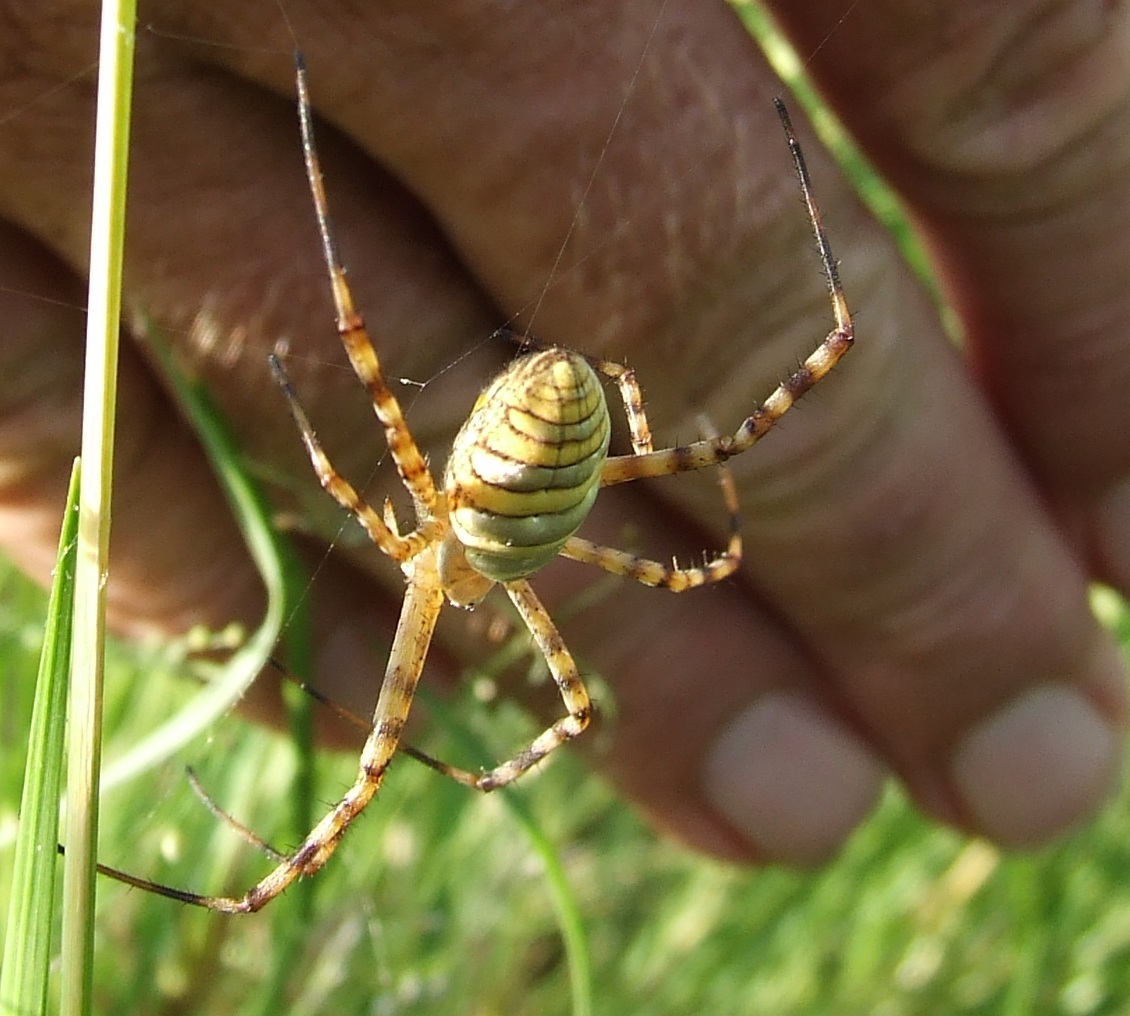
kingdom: Animalia
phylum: Arthropoda
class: Arachnida
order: Araneae
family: Araneidae
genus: Argiope
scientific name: Argiope trifasciata
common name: Banded garden spider
